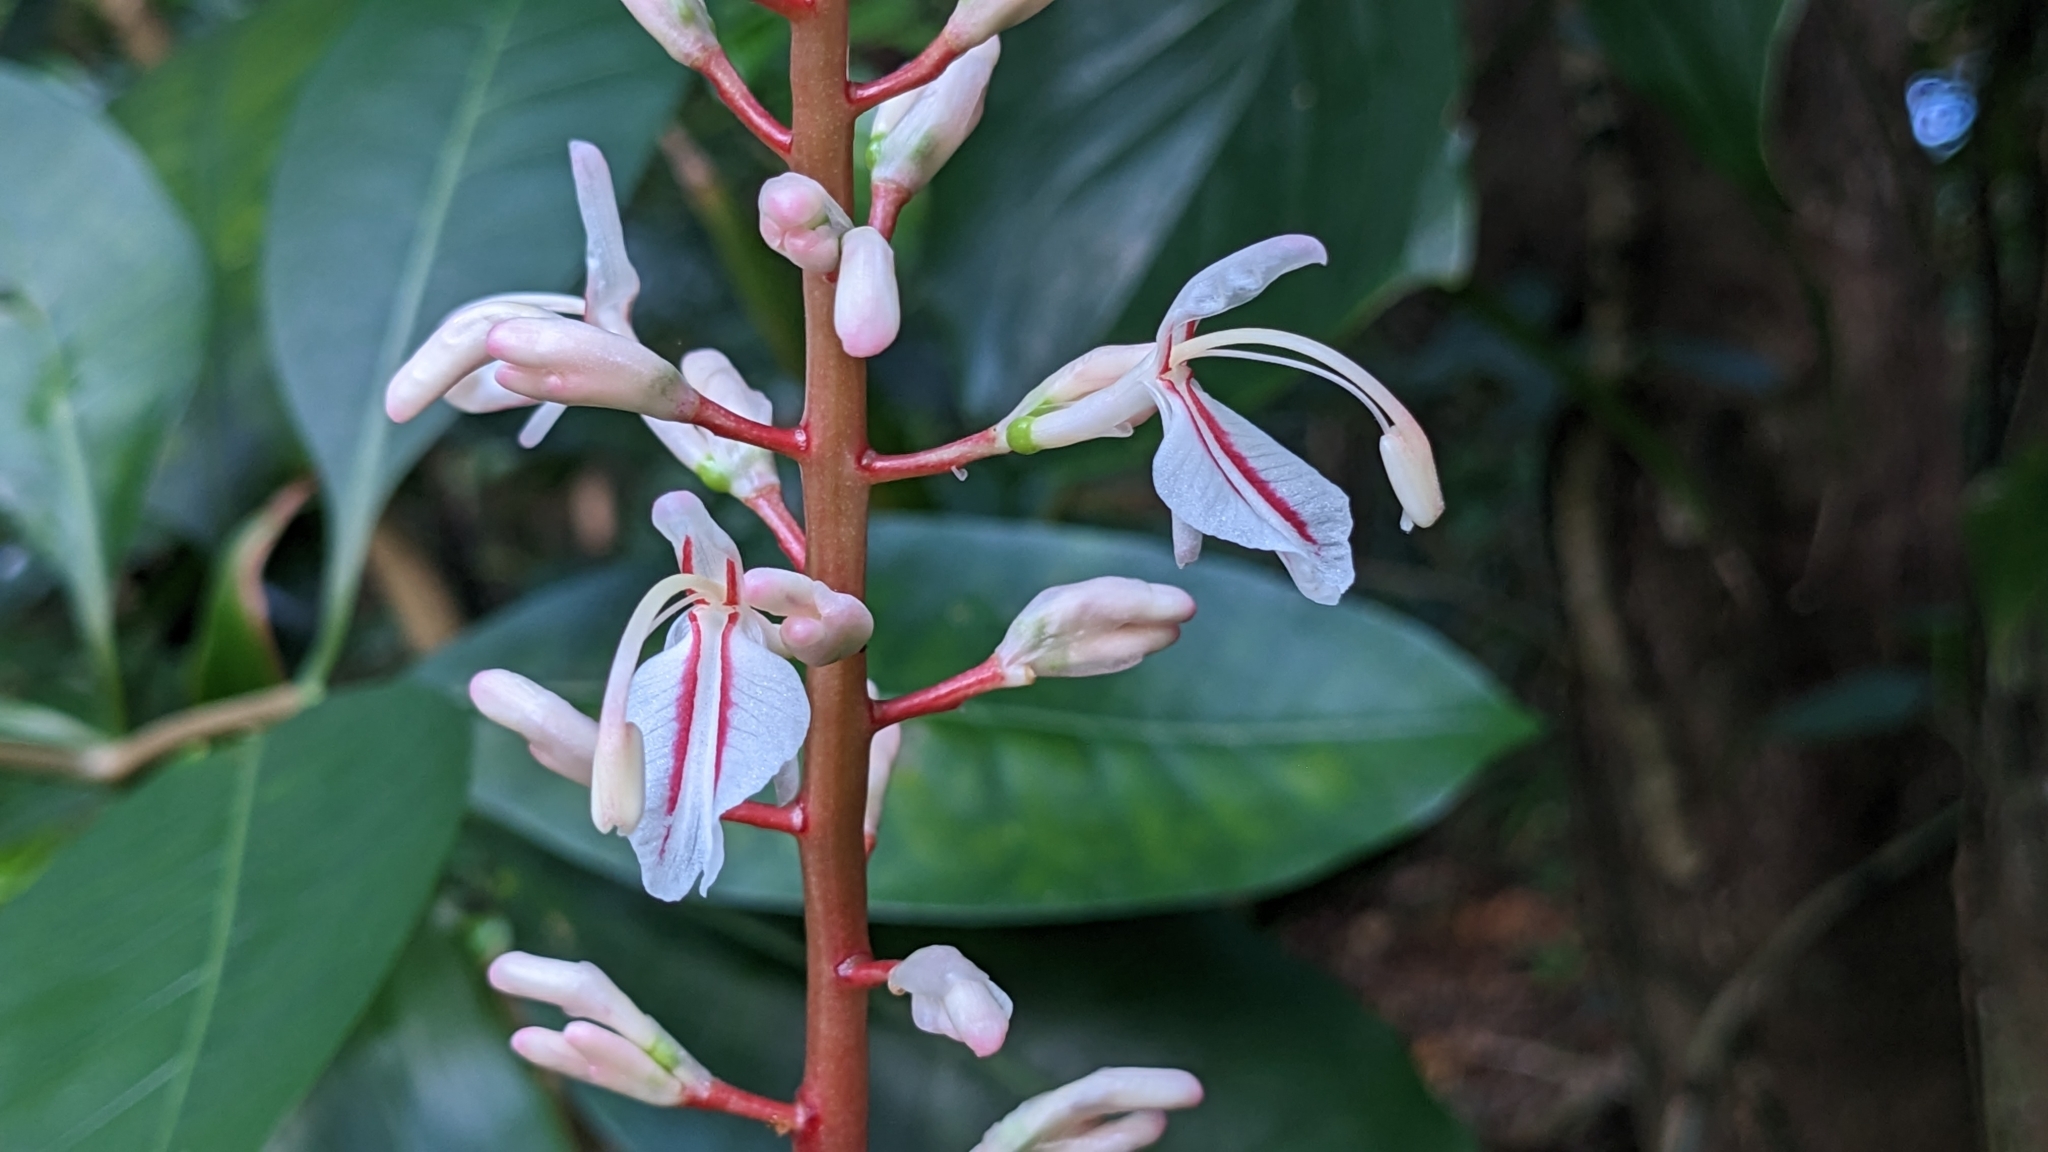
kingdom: Plantae
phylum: Tracheophyta
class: Liliopsida
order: Zingiberales
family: Zingiberaceae
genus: Alpinia
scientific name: Alpinia intermedia
